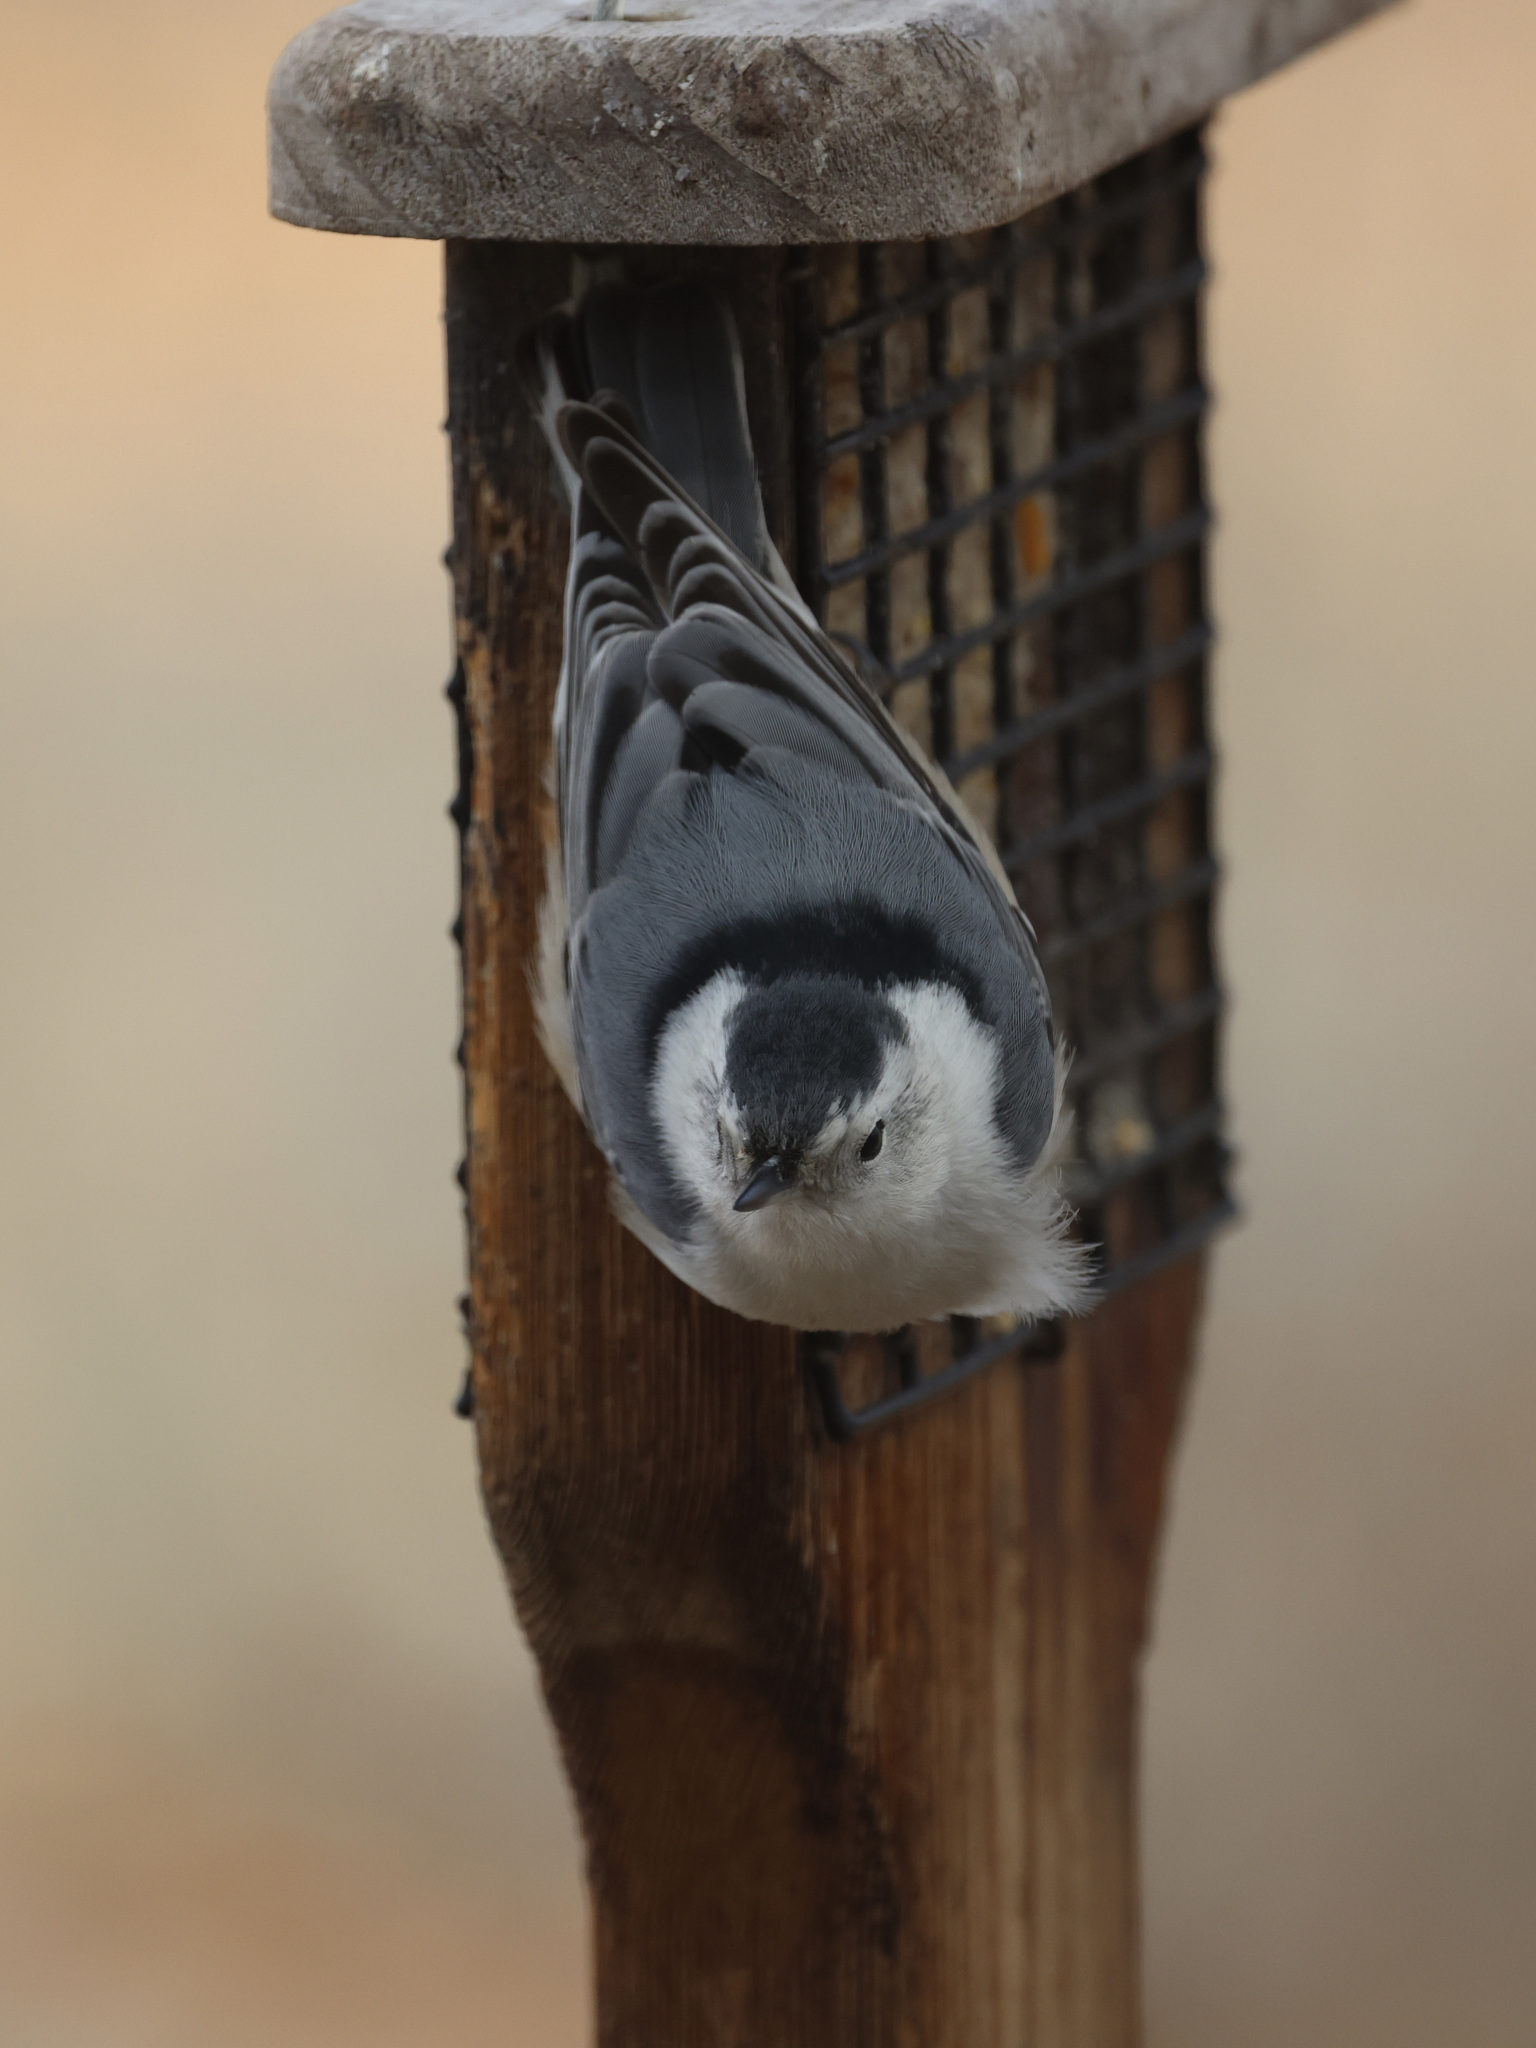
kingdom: Animalia
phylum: Chordata
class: Aves
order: Passeriformes
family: Sittidae
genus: Sitta
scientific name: Sitta carolinensis
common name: White-breasted nuthatch
